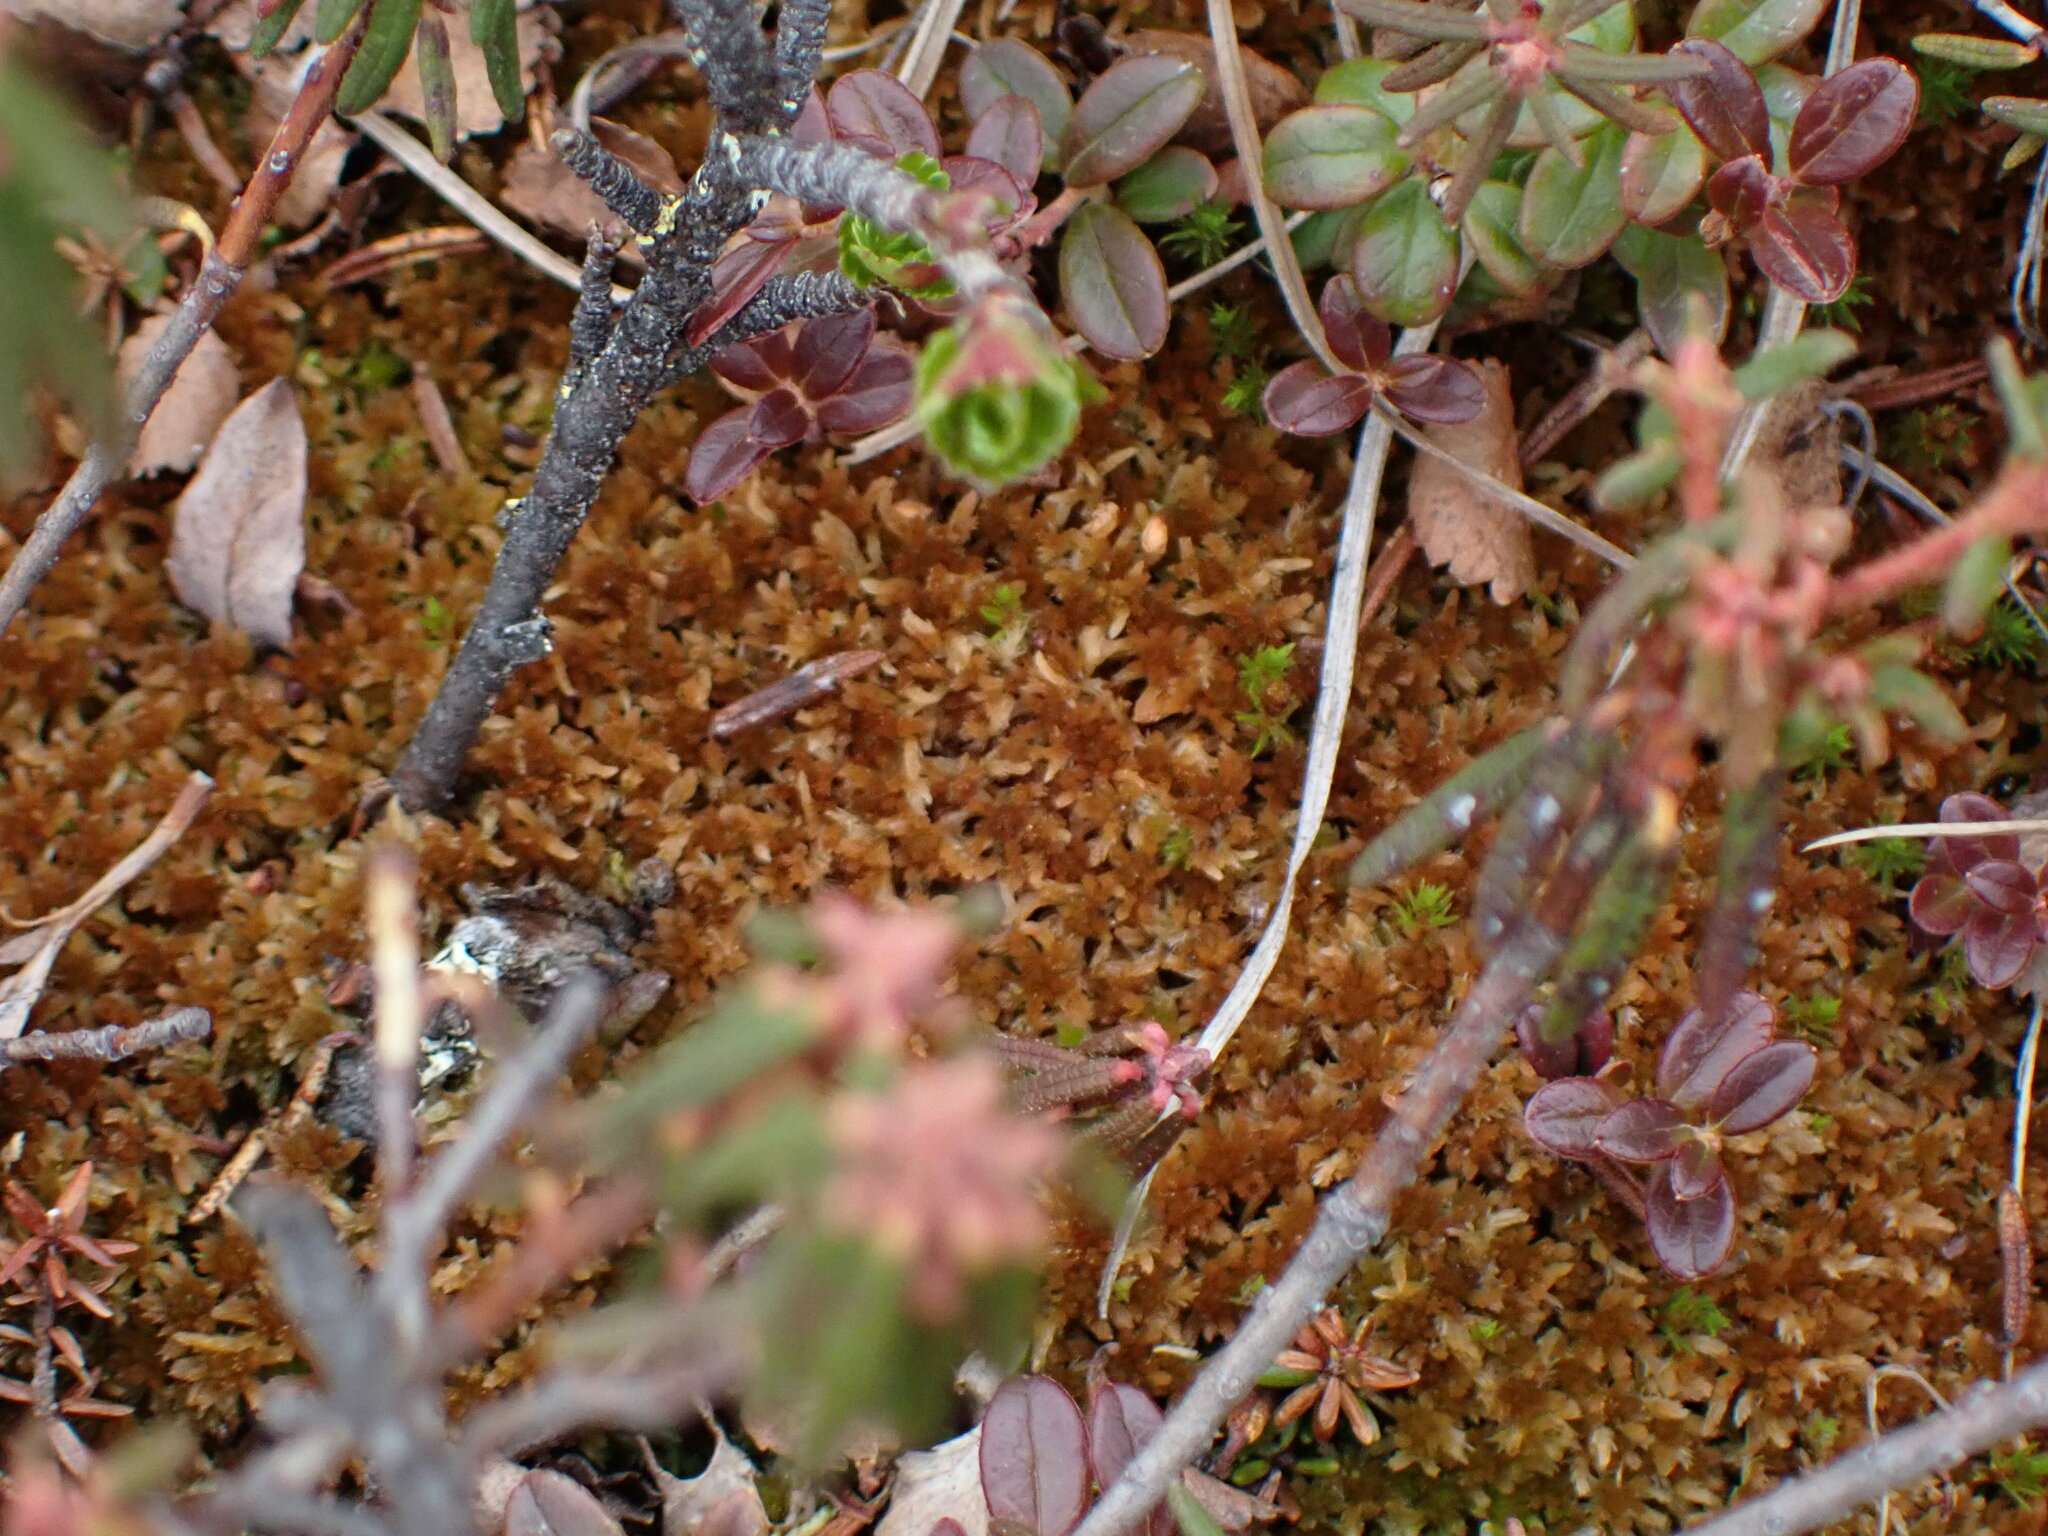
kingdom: Plantae
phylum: Bryophyta
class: Sphagnopsida
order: Sphagnales
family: Sphagnaceae
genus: Sphagnum
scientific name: Sphagnum fuscum
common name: Brown peat moss
